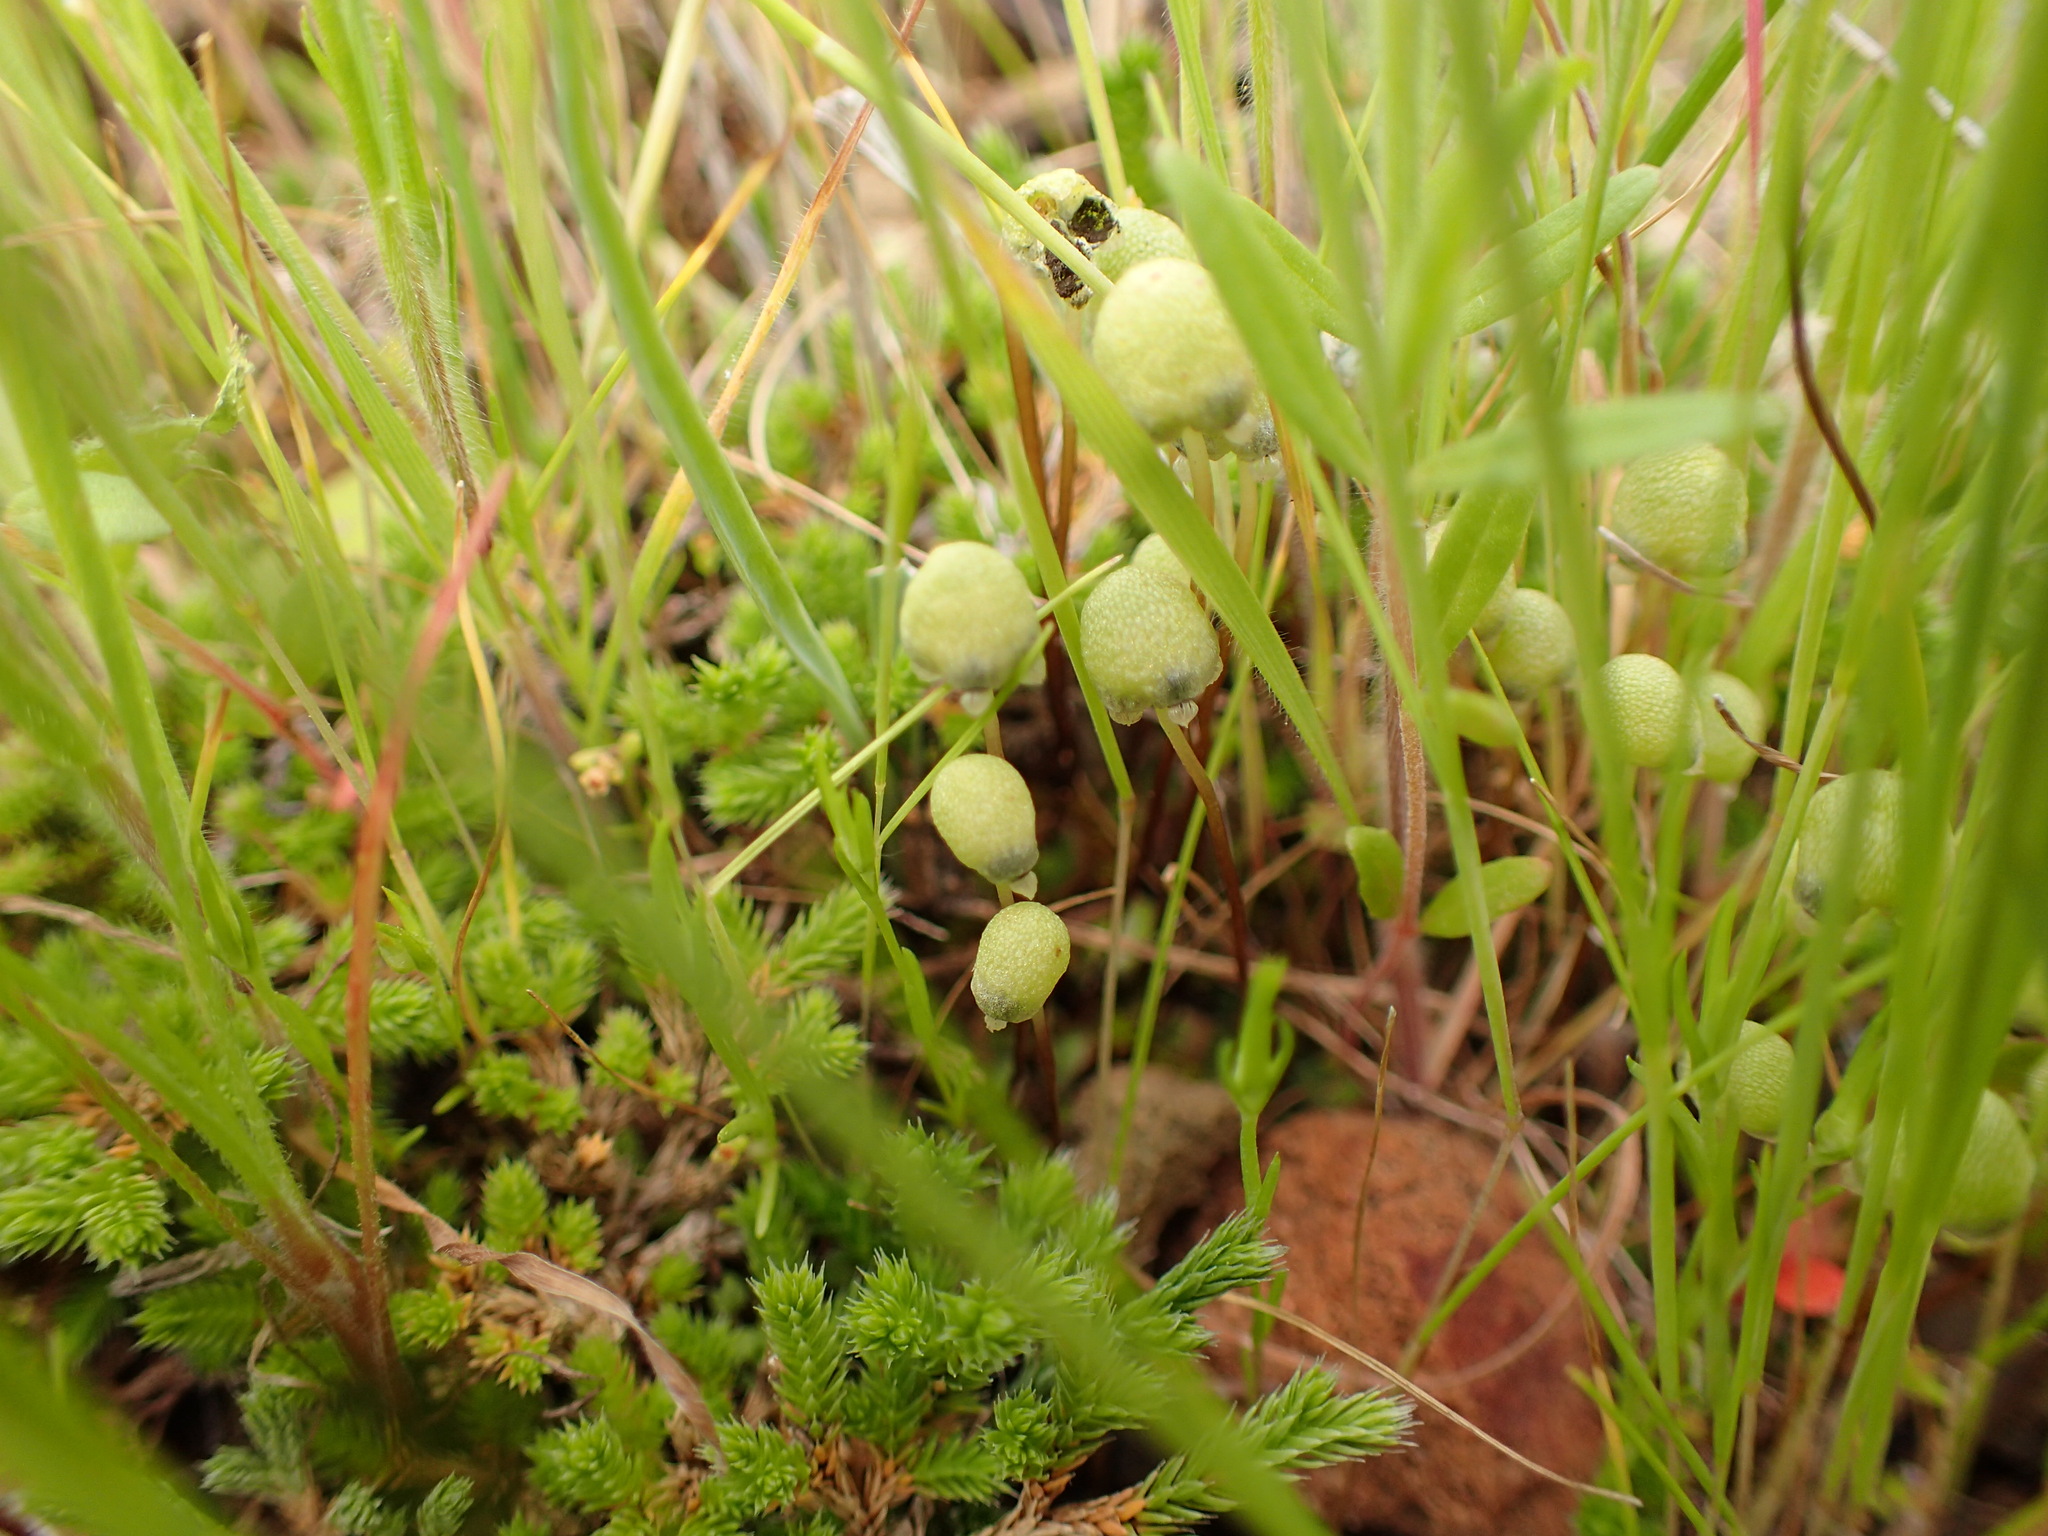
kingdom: Plantae
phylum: Marchantiophyta
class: Marchantiopsida
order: Marchantiales
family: Aytoniaceae
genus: Asterella
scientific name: Asterella palmeri
